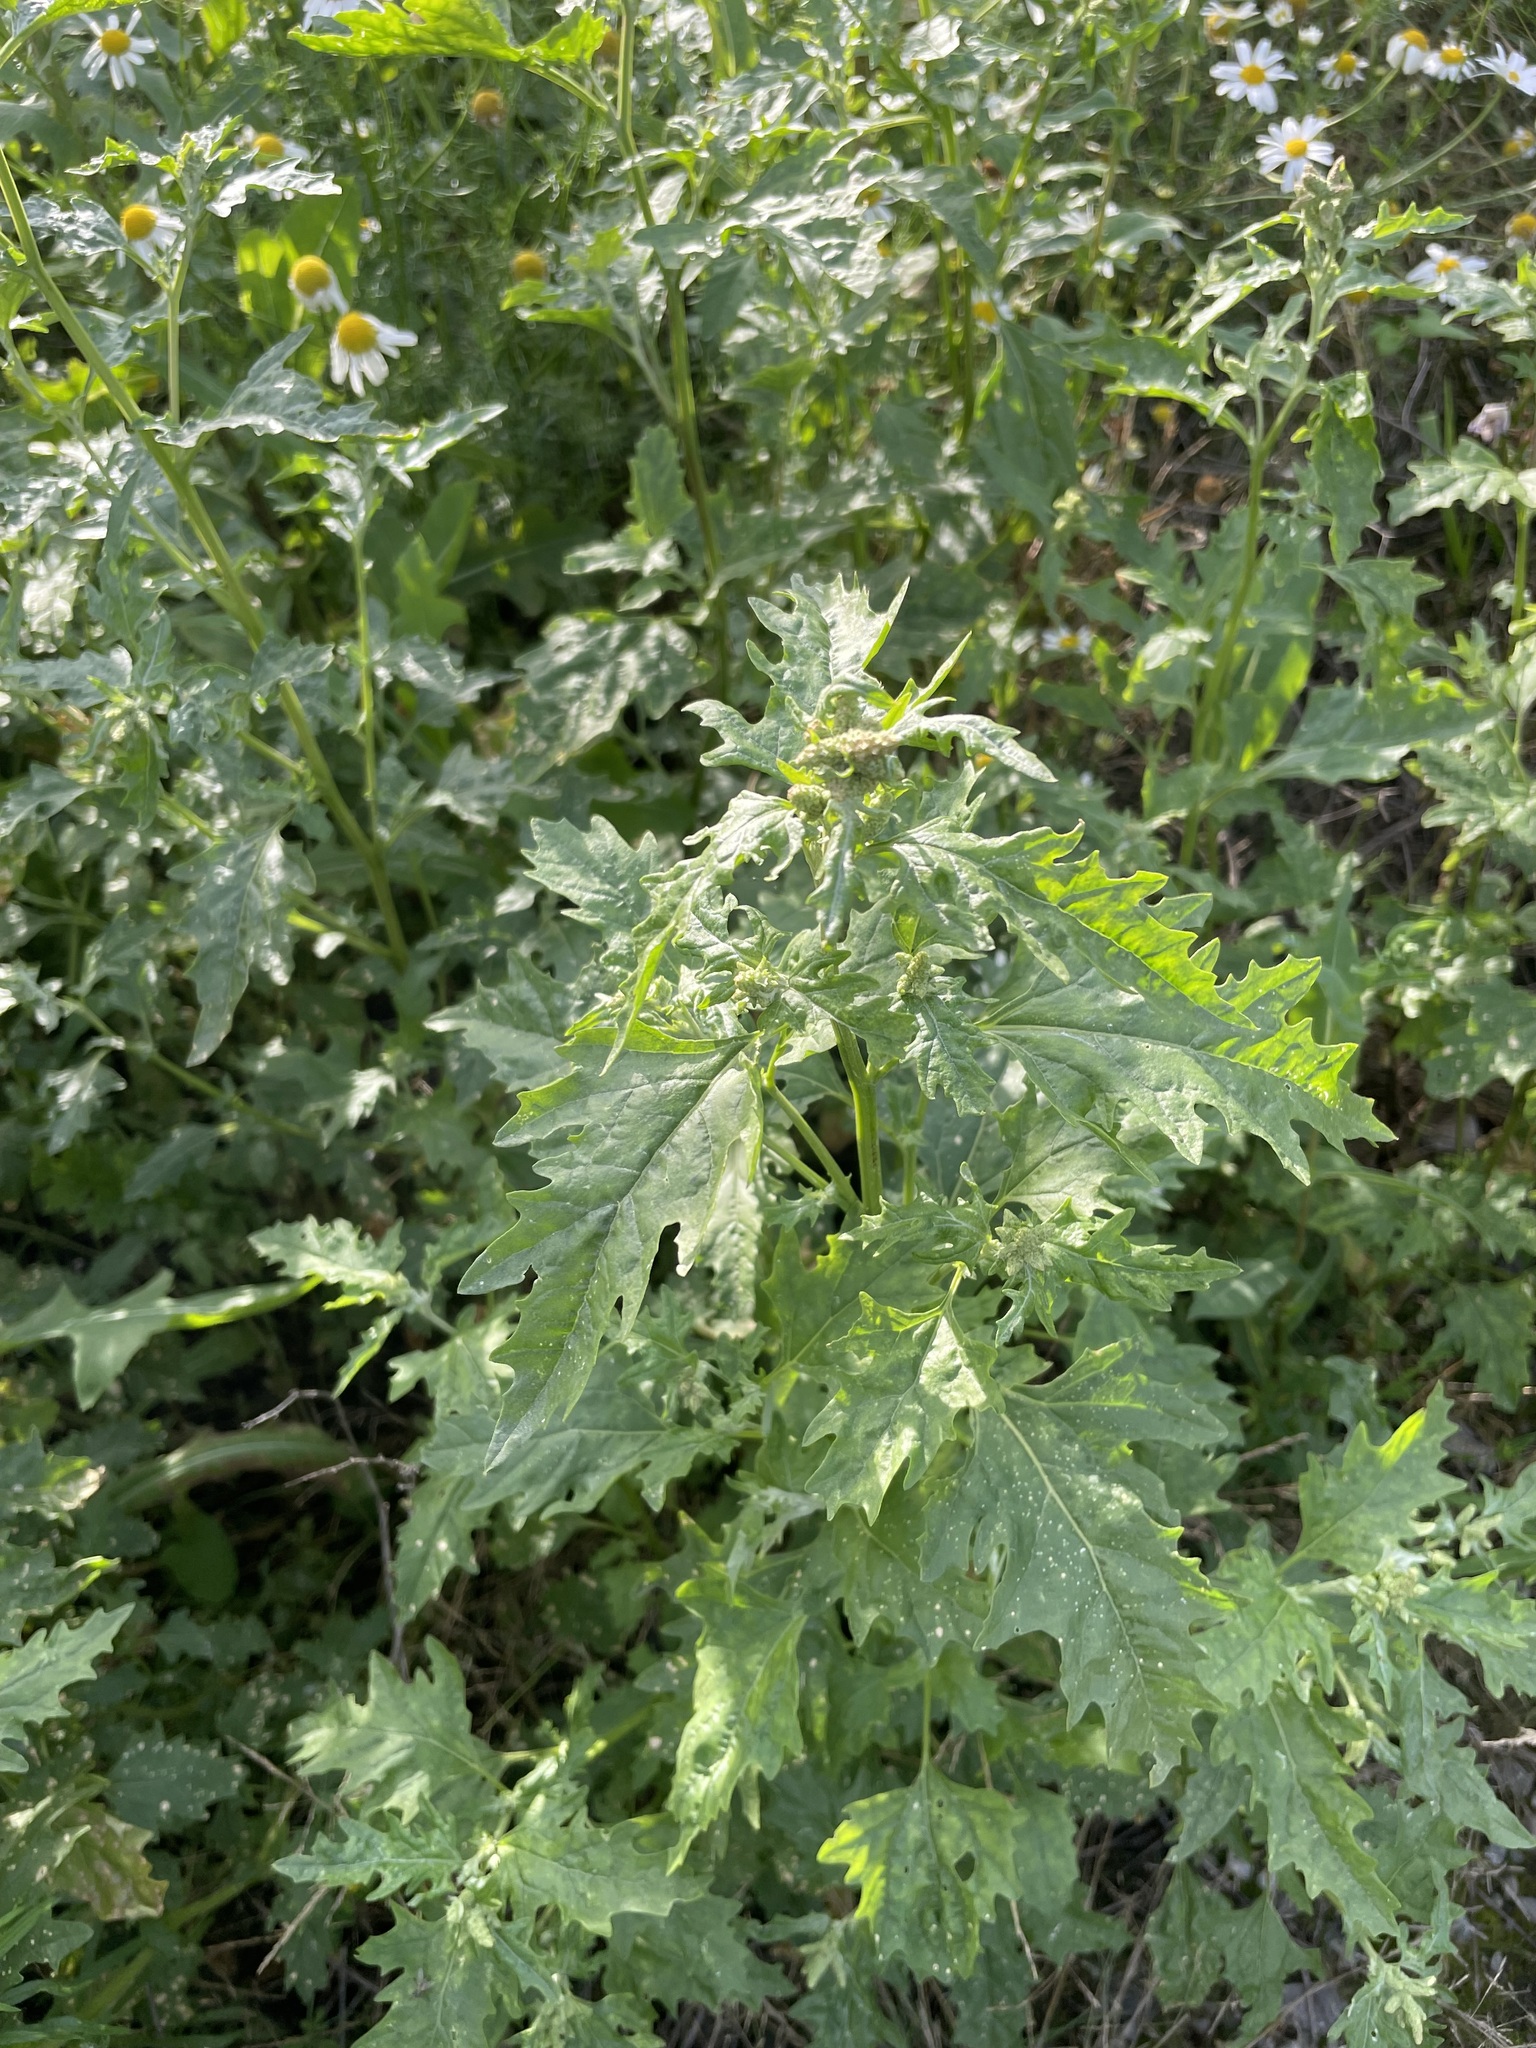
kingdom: Plantae
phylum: Tracheophyta
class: Magnoliopsida
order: Caryophyllales
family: Amaranthaceae
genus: Atriplex
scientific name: Atriplex tatarica
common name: Tatarian orache
